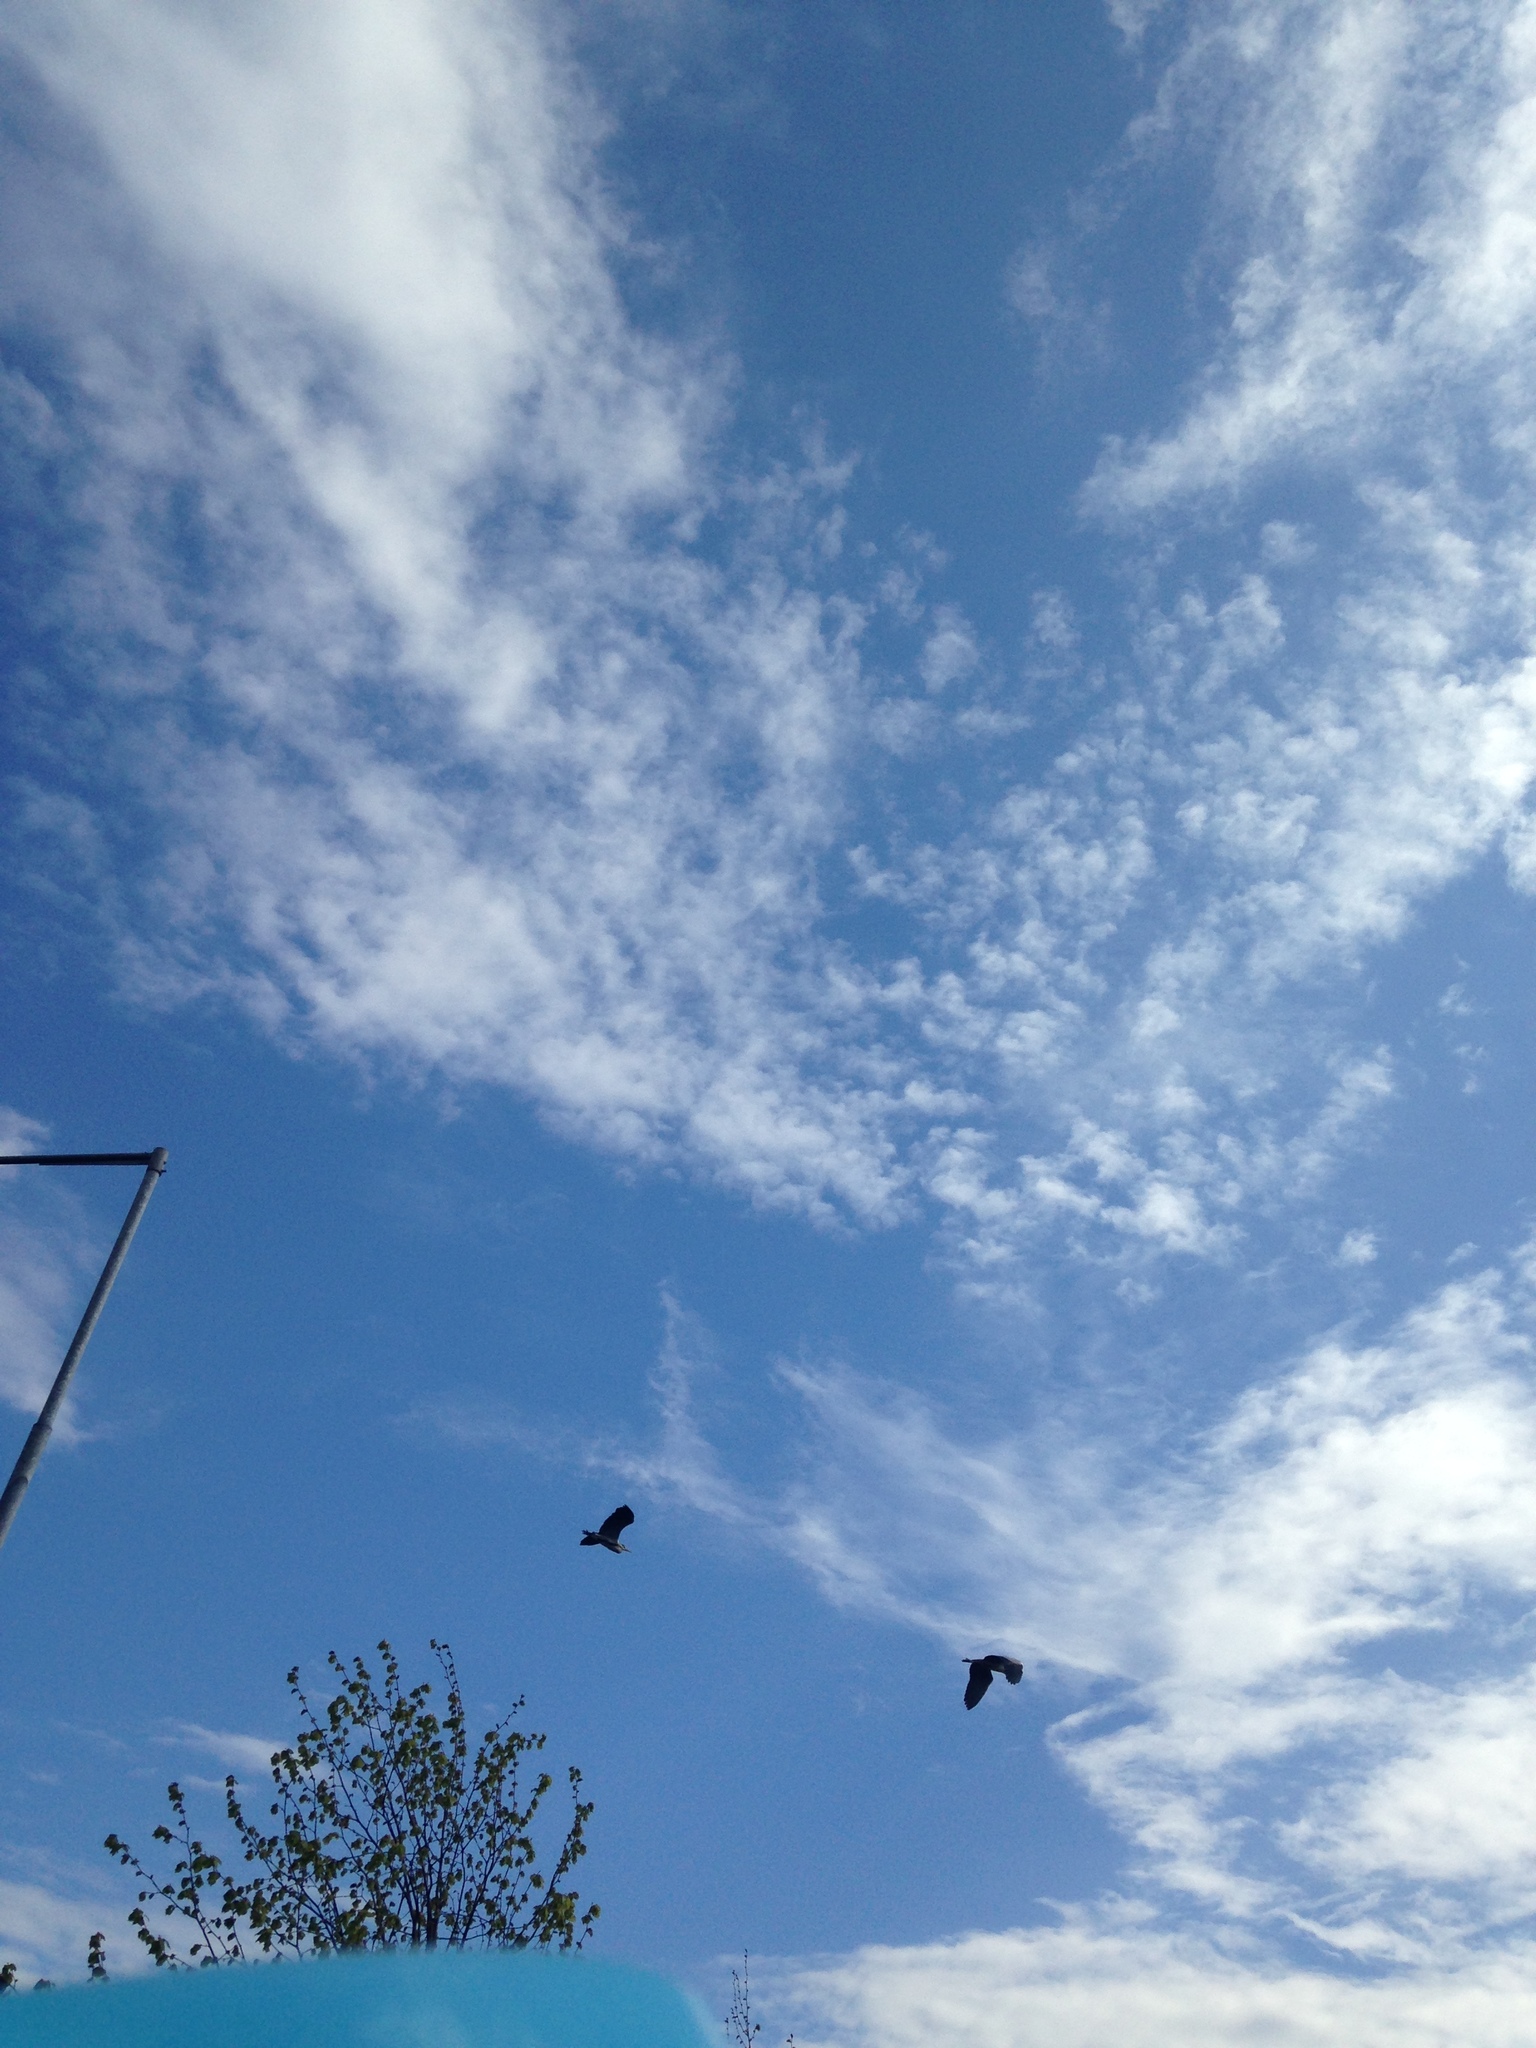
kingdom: Animalia
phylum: Chordata
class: Aves
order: Pelecaniformes
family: Ardeidae
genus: Ardea
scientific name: Ardea cinerea
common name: Grey heron
